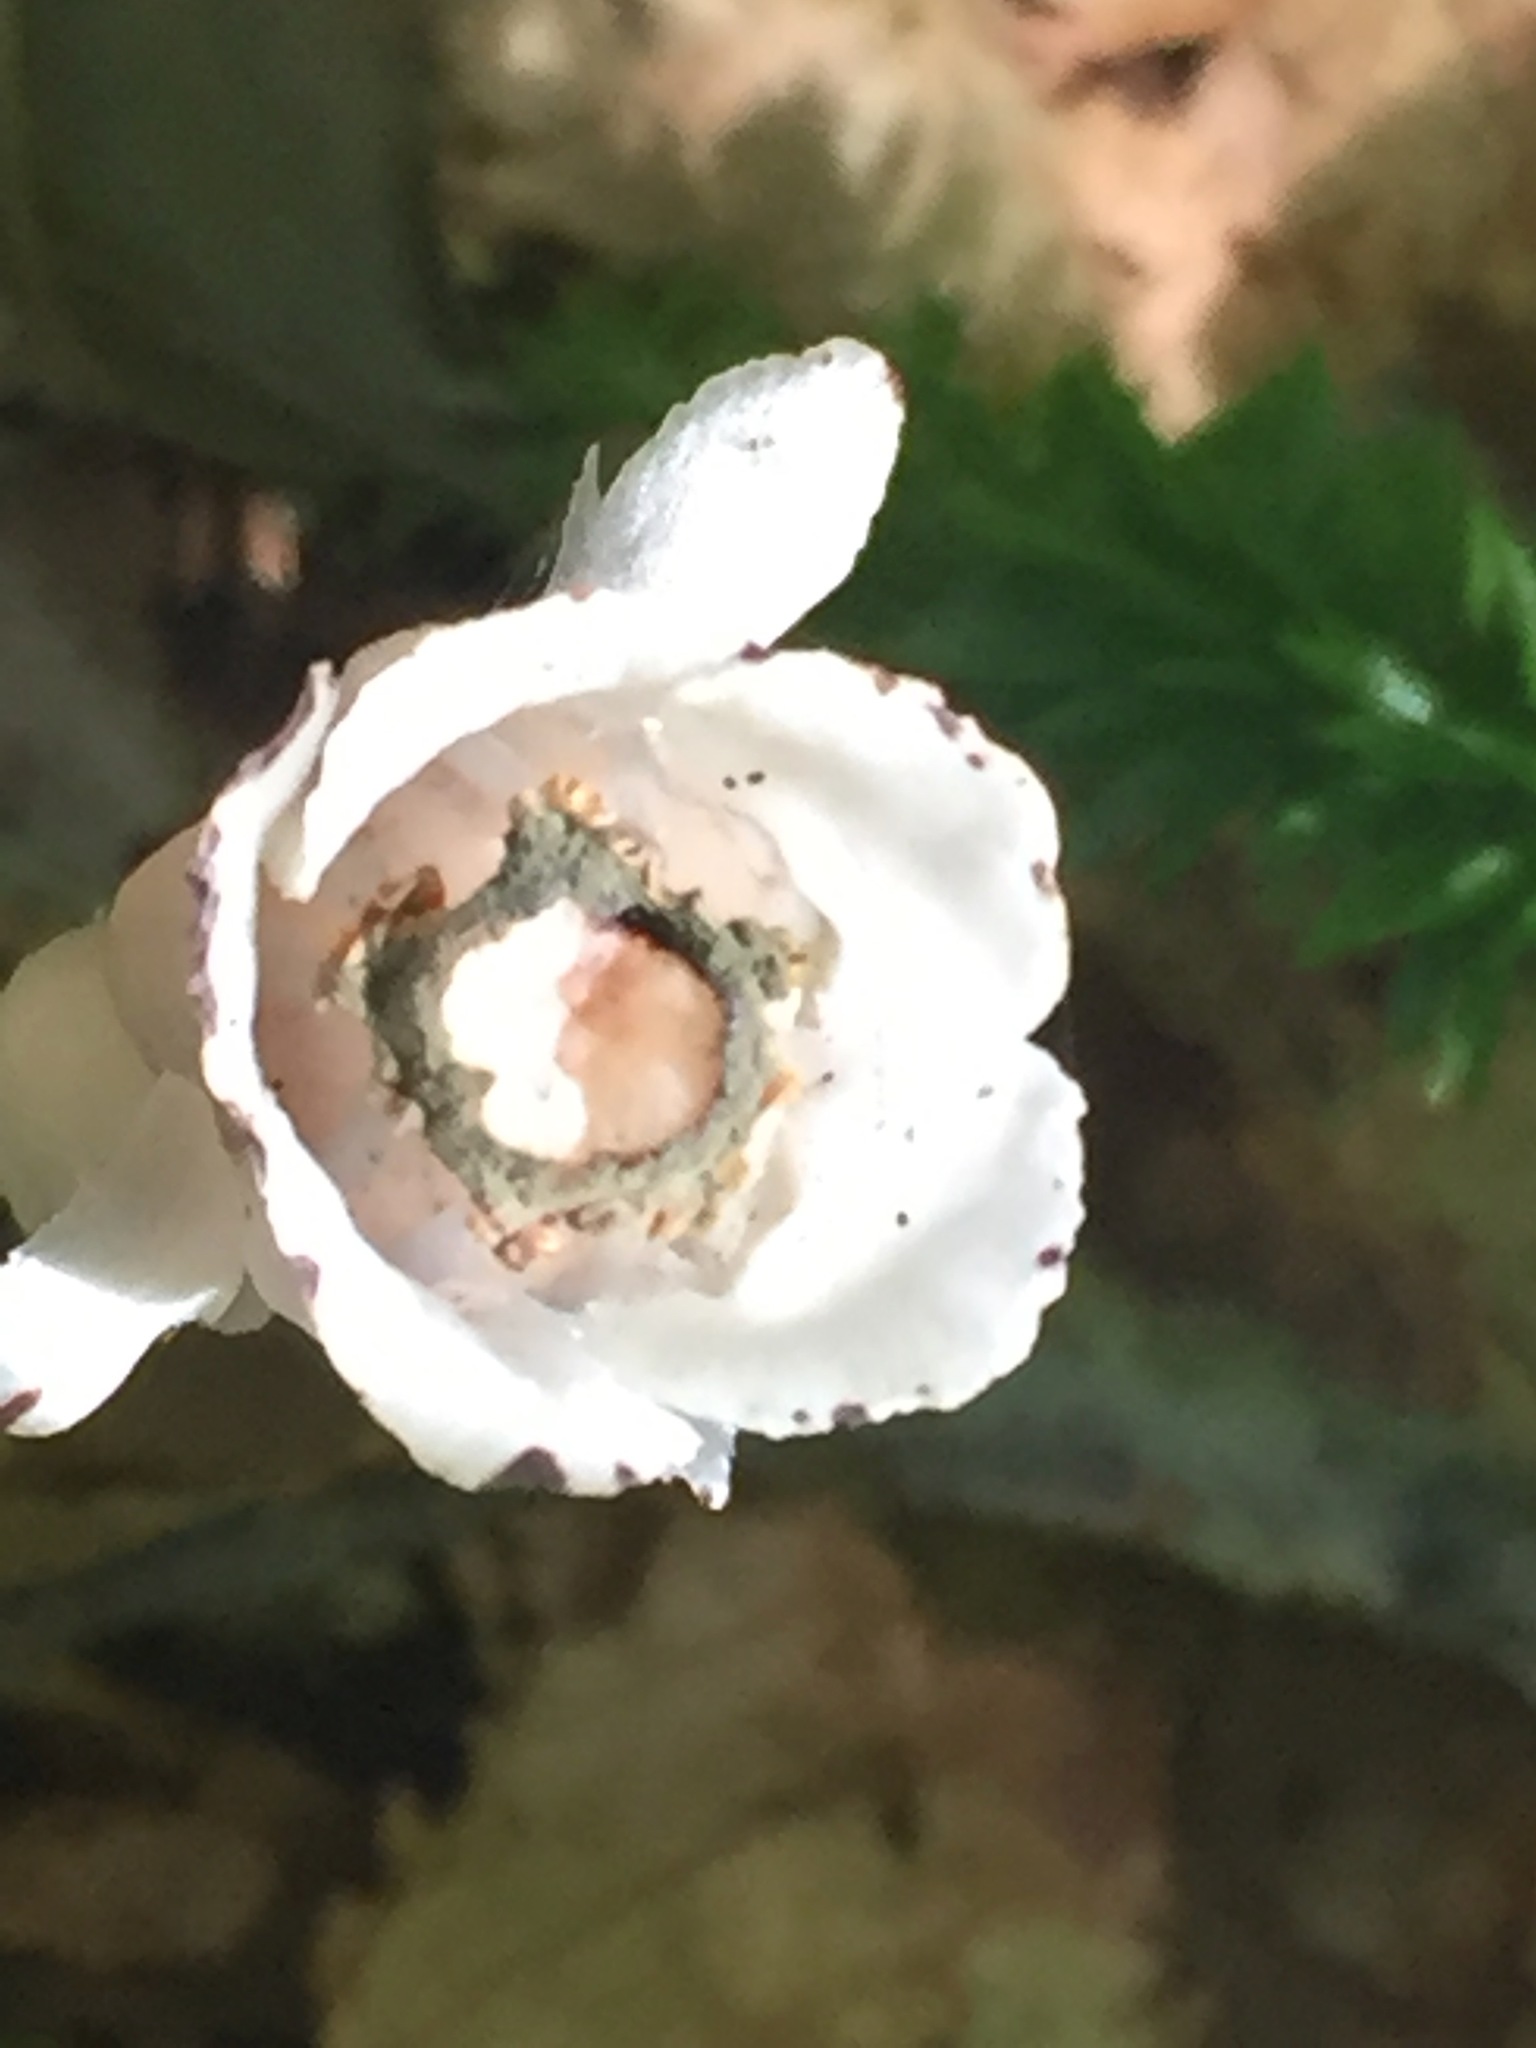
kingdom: Plantae
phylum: Tracheophyta
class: Magnoliopsida
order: Ericales
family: Ericaceae
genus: Monotropa
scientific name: Monotropa uniflora
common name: Convulsion root
